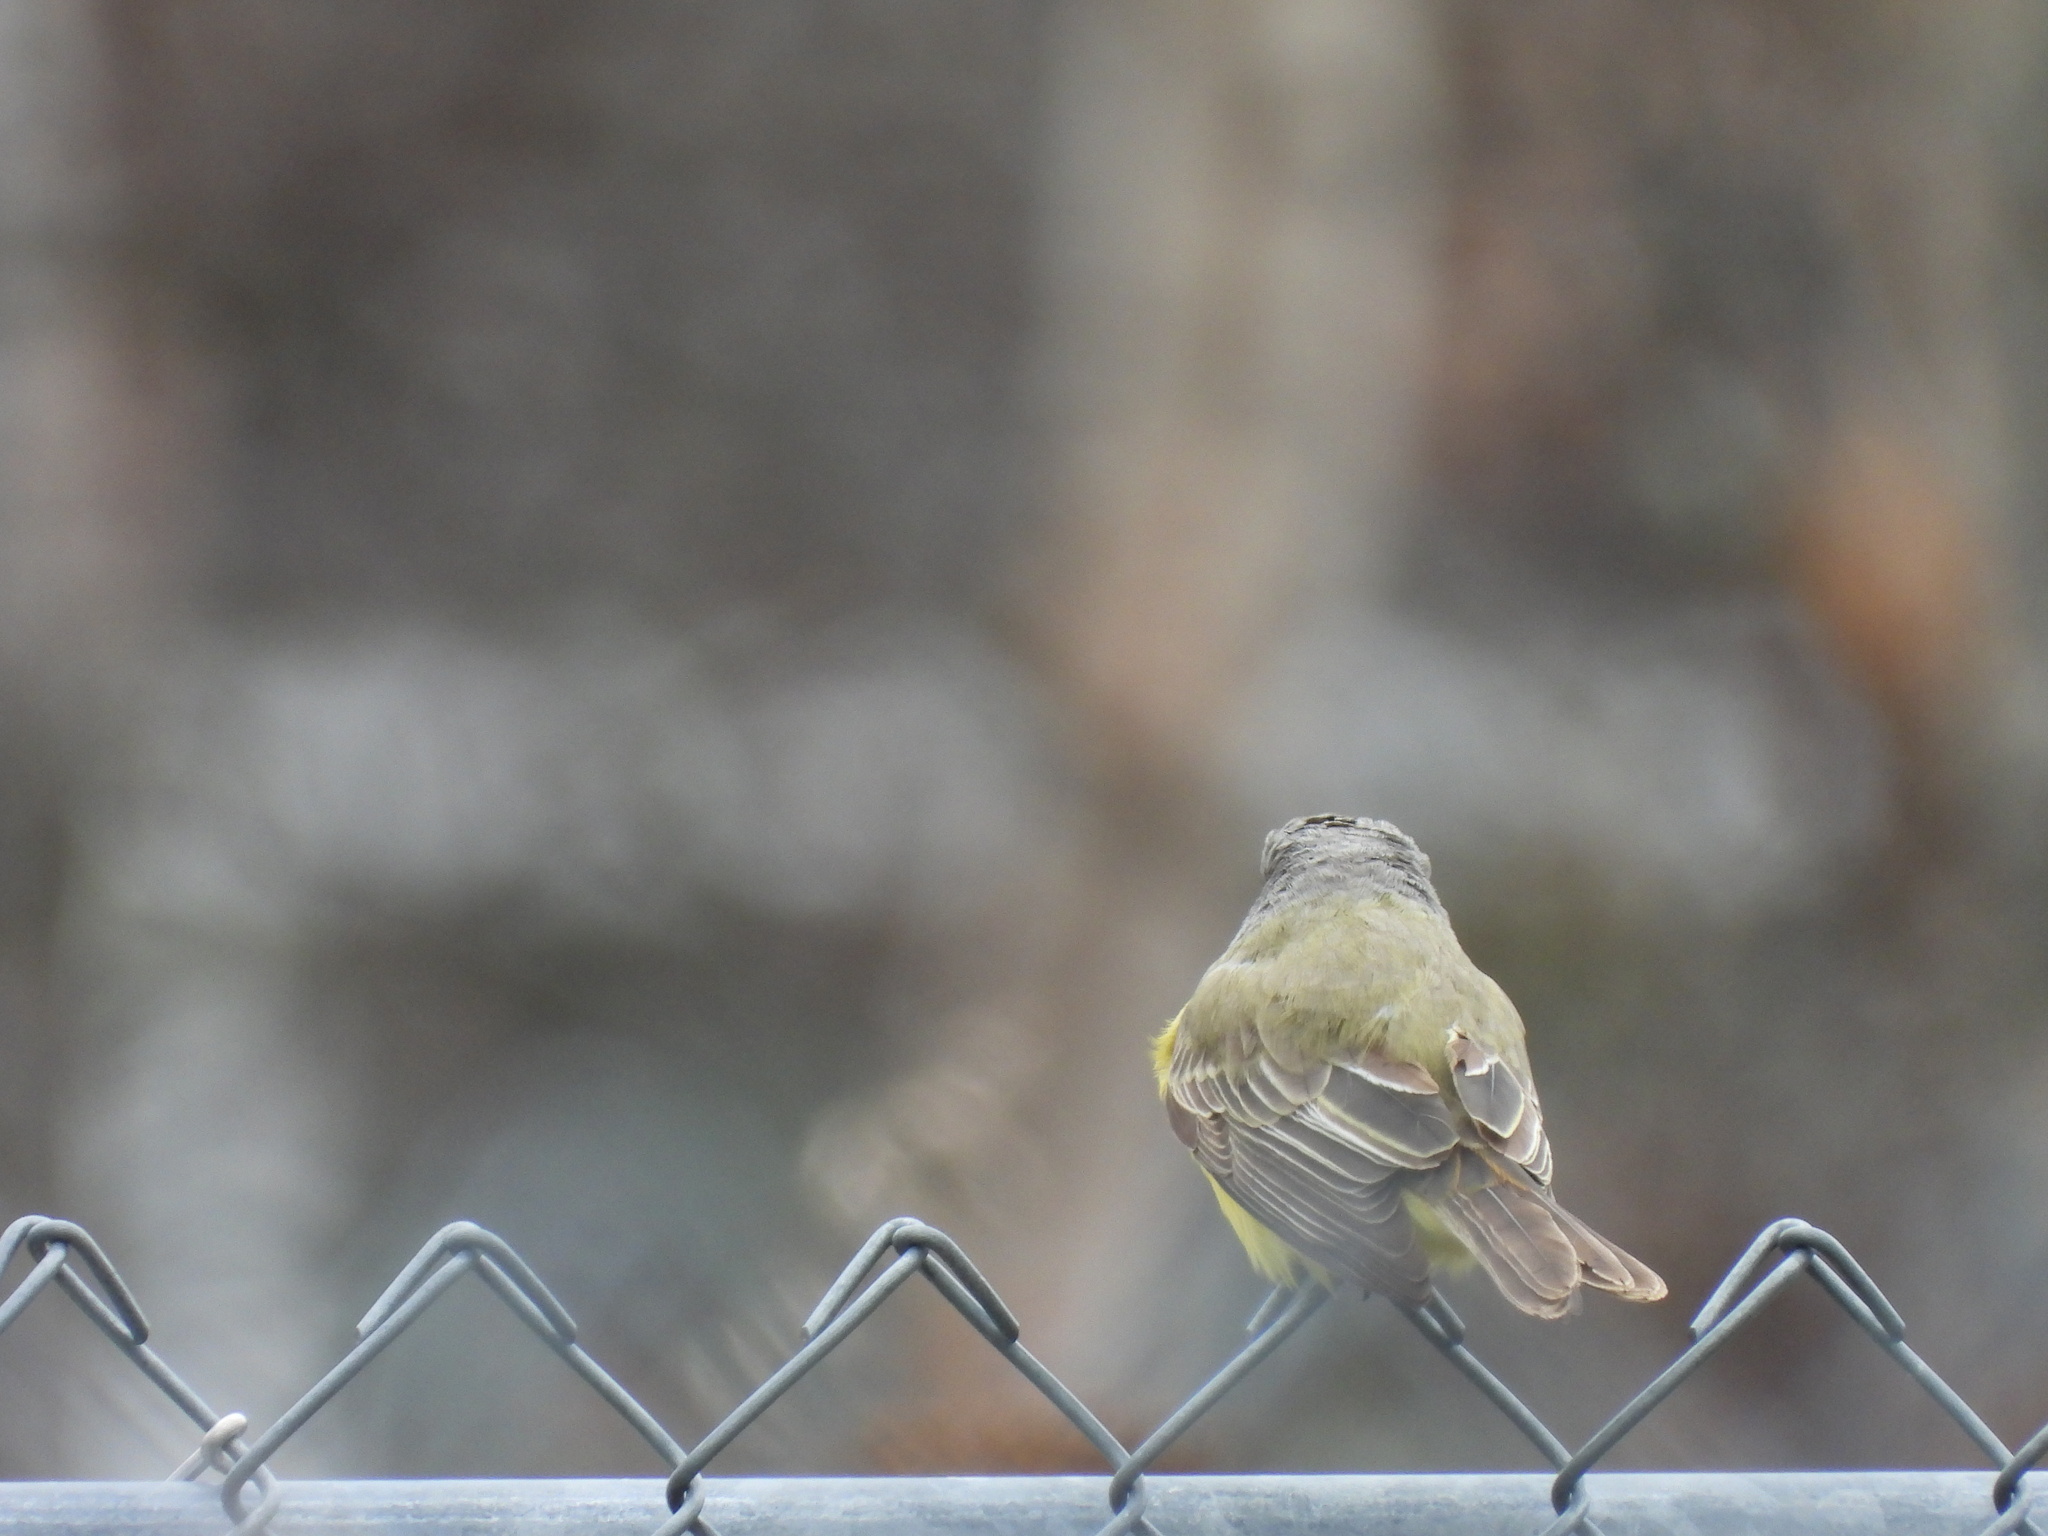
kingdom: Animalia
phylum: Chordata
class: Aves
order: Passeriformes
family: Tyrannidae
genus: Tyrannus
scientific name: Tyrannus melancholicus
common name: Tropical kingbird
